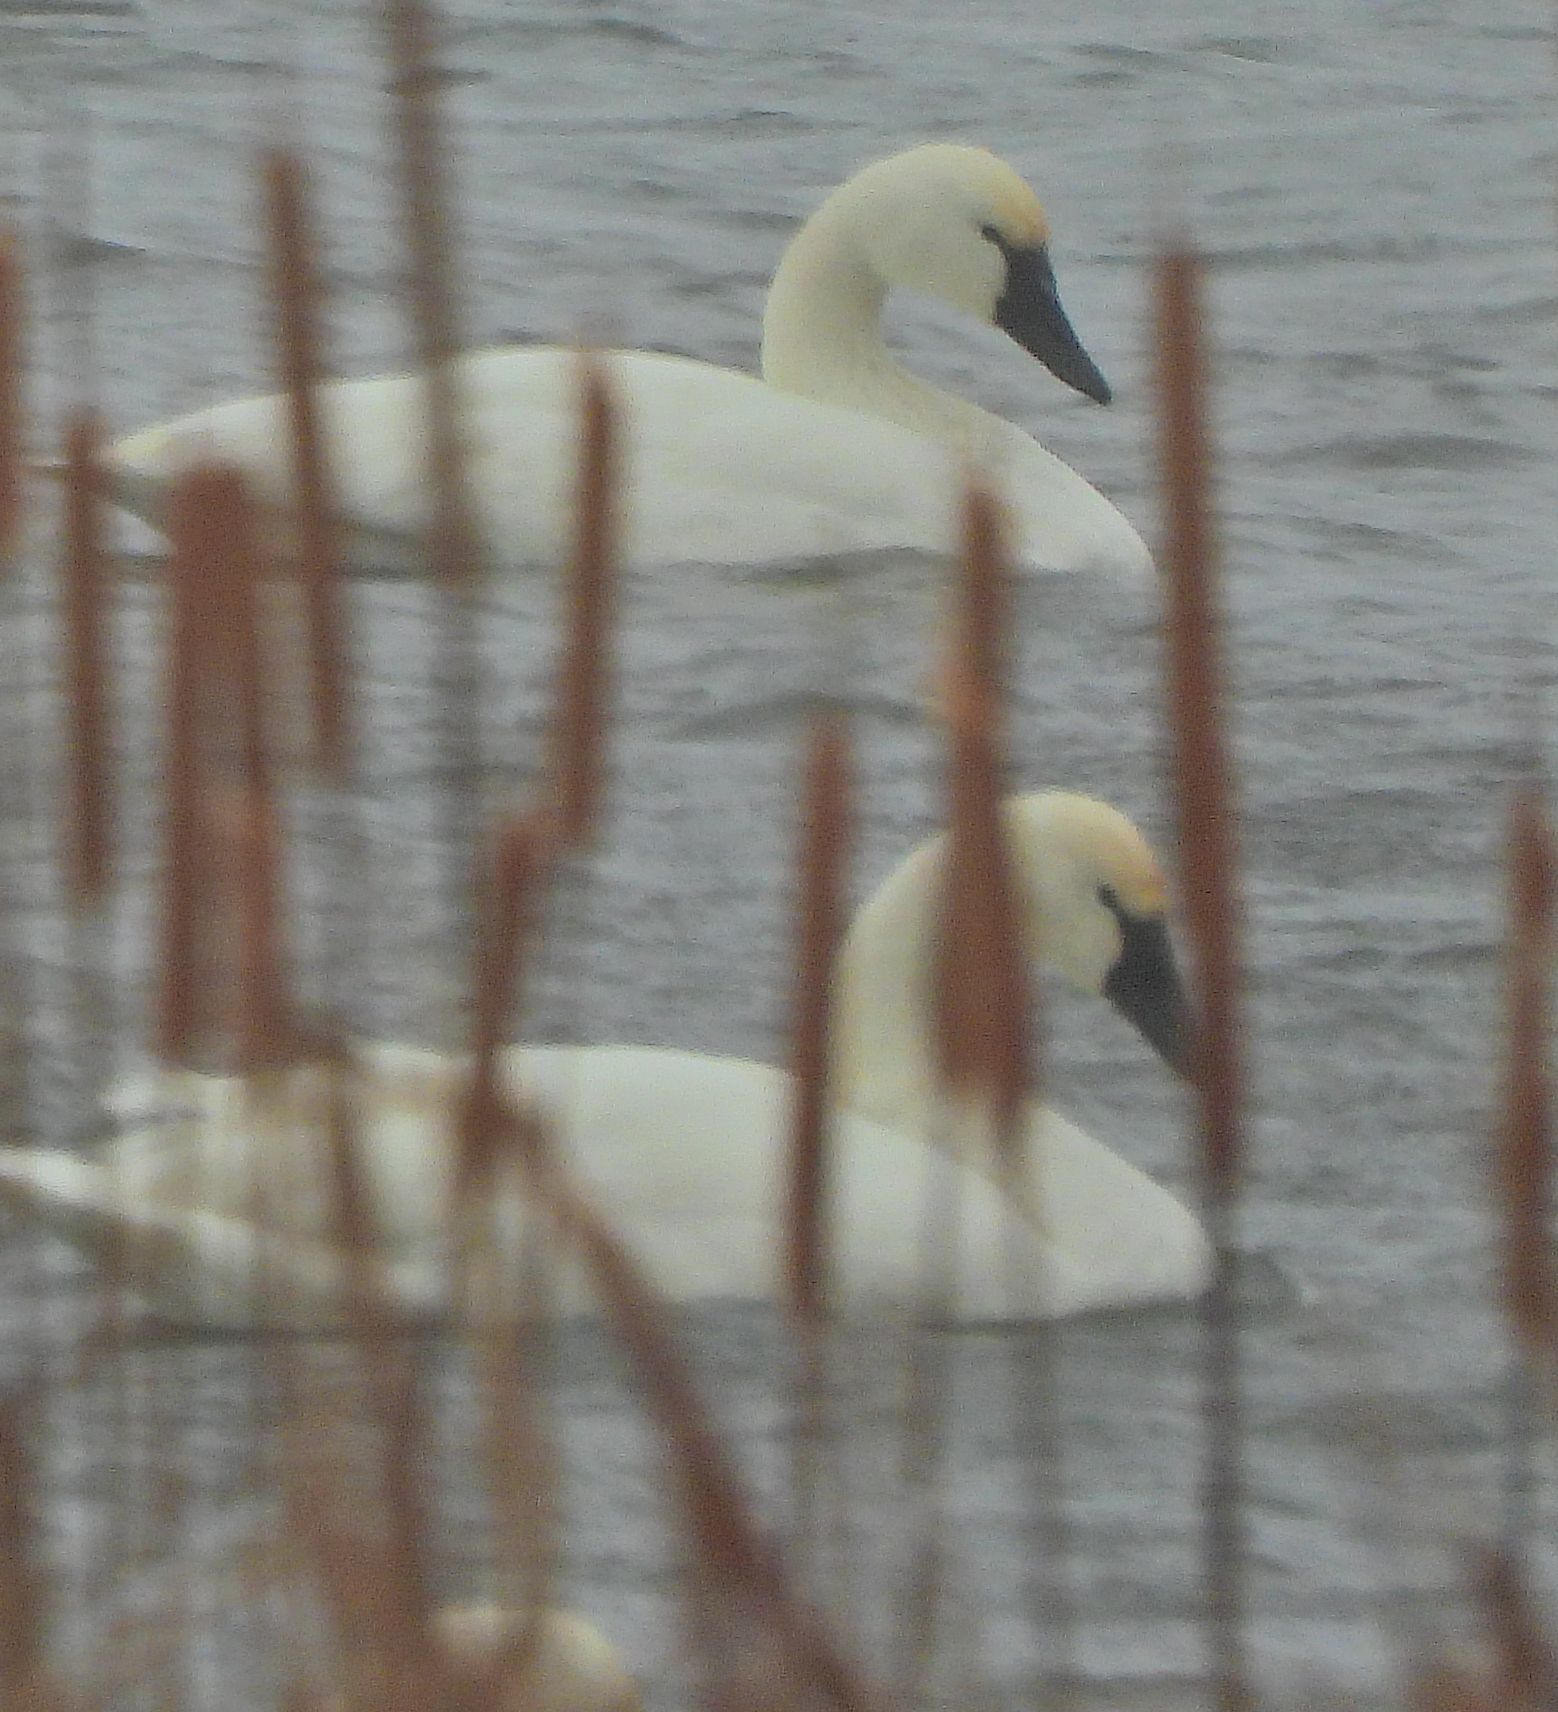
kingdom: Animalia
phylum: Chordata
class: Aves
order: Anseriformes
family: Anatidae
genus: Cygnus
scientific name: Cygnus columbianus
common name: Tundra swan
